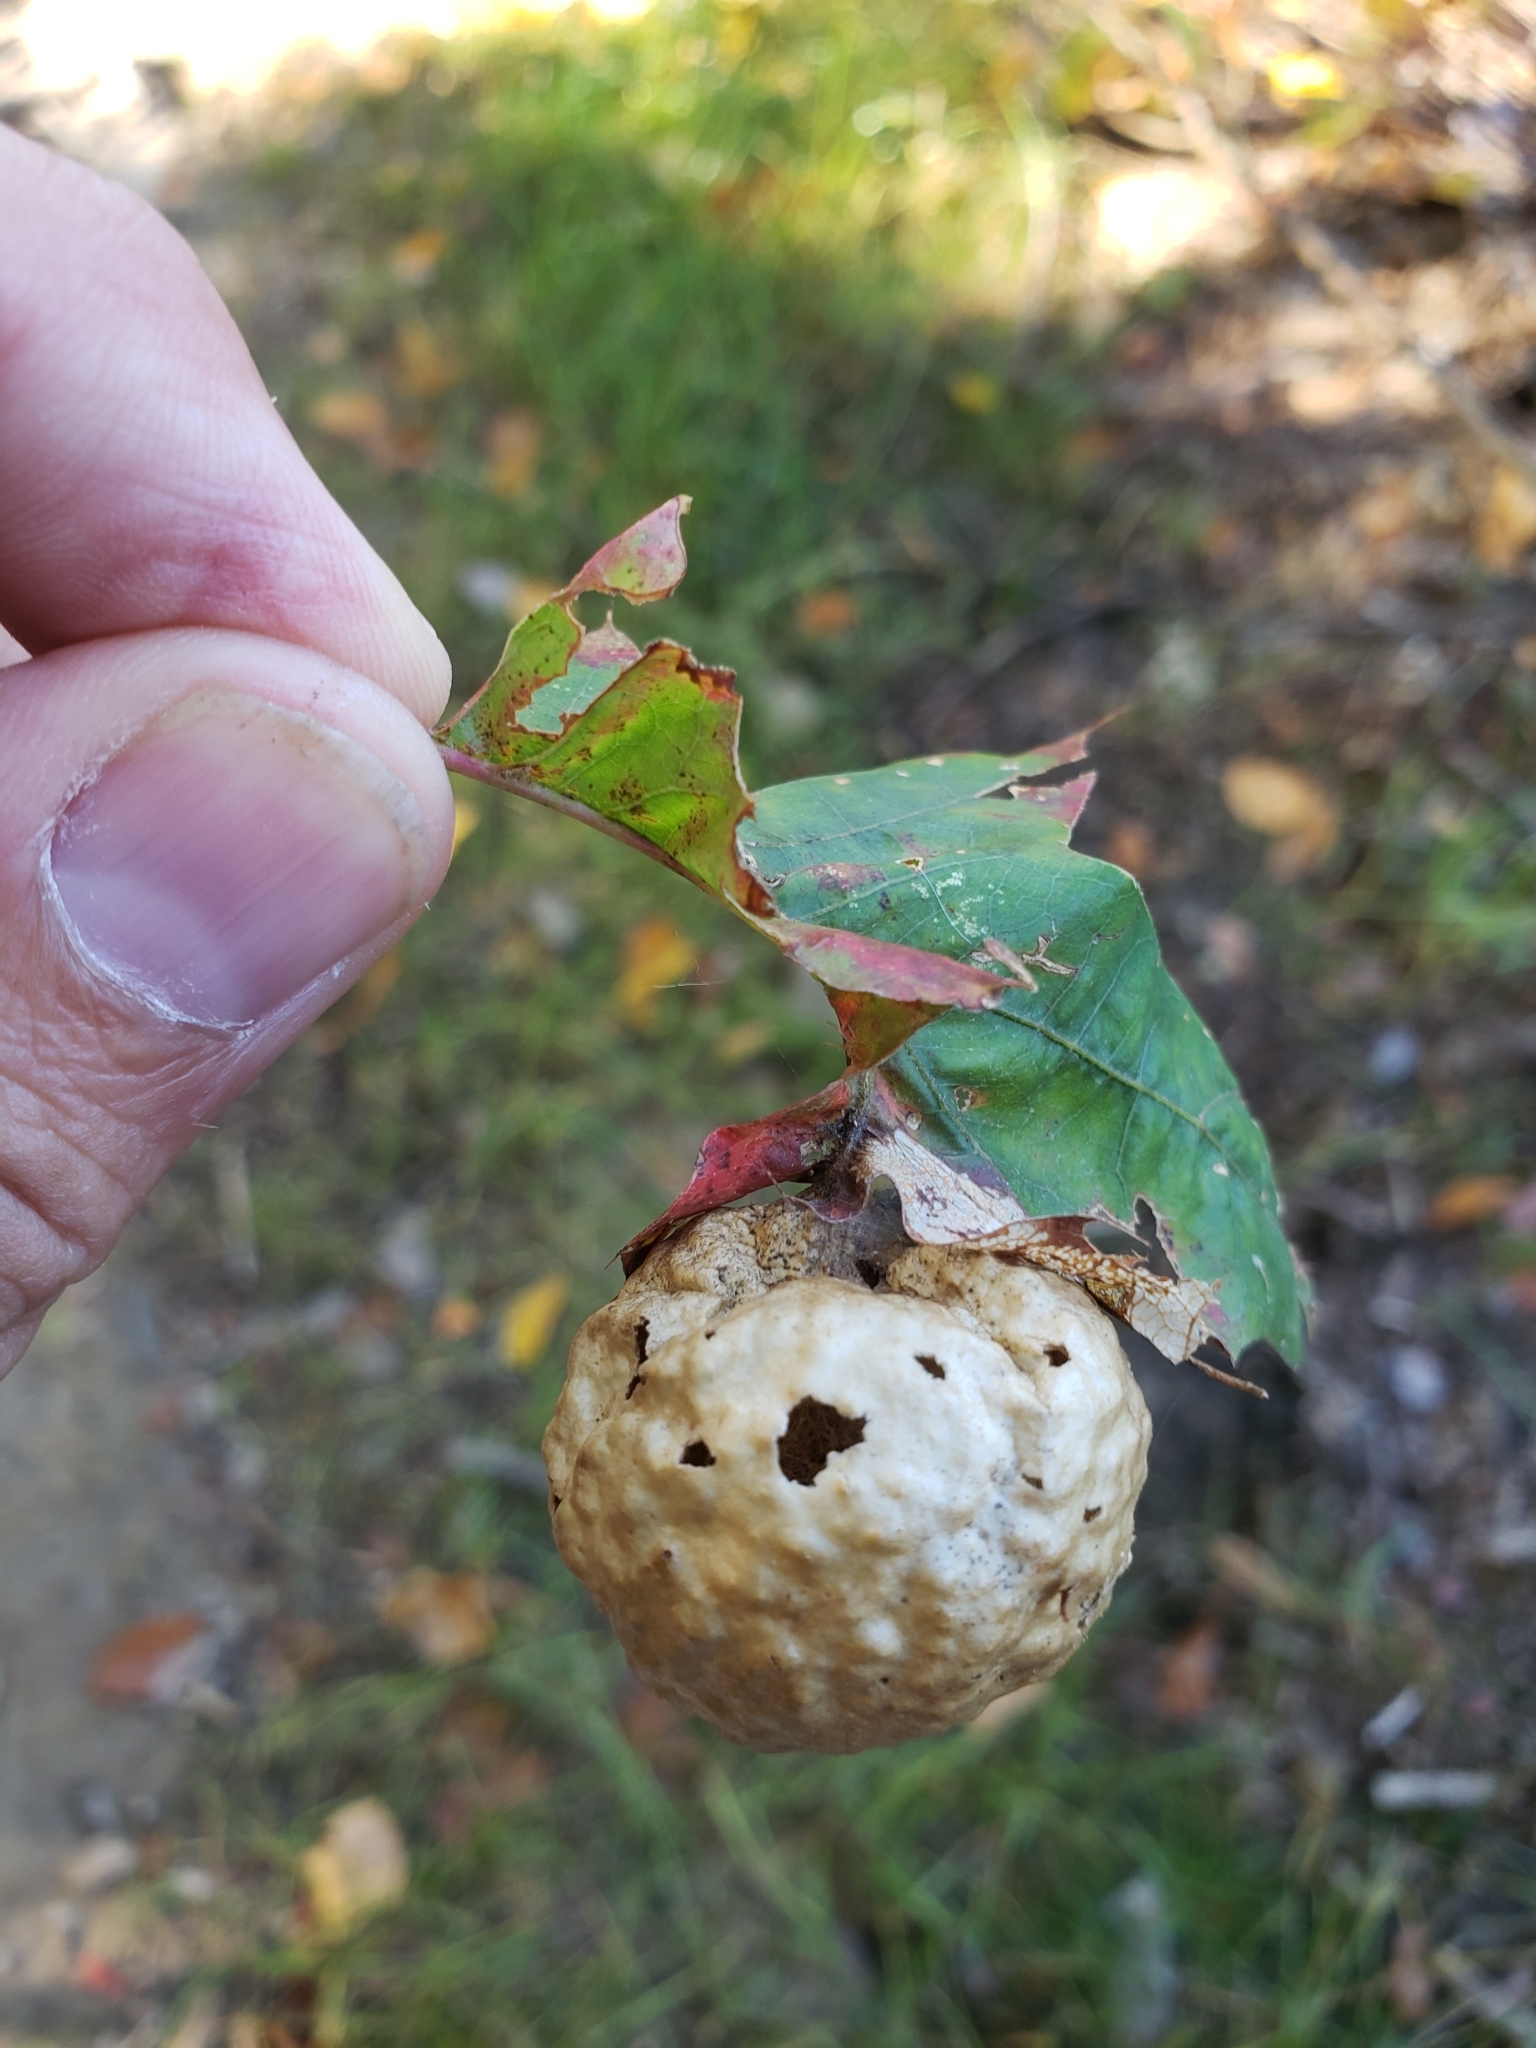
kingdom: Animalia
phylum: Arthropoda
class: Insecta
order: Hymenoptera
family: Cynipidae
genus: Amphibolips
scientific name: Amphibolips
